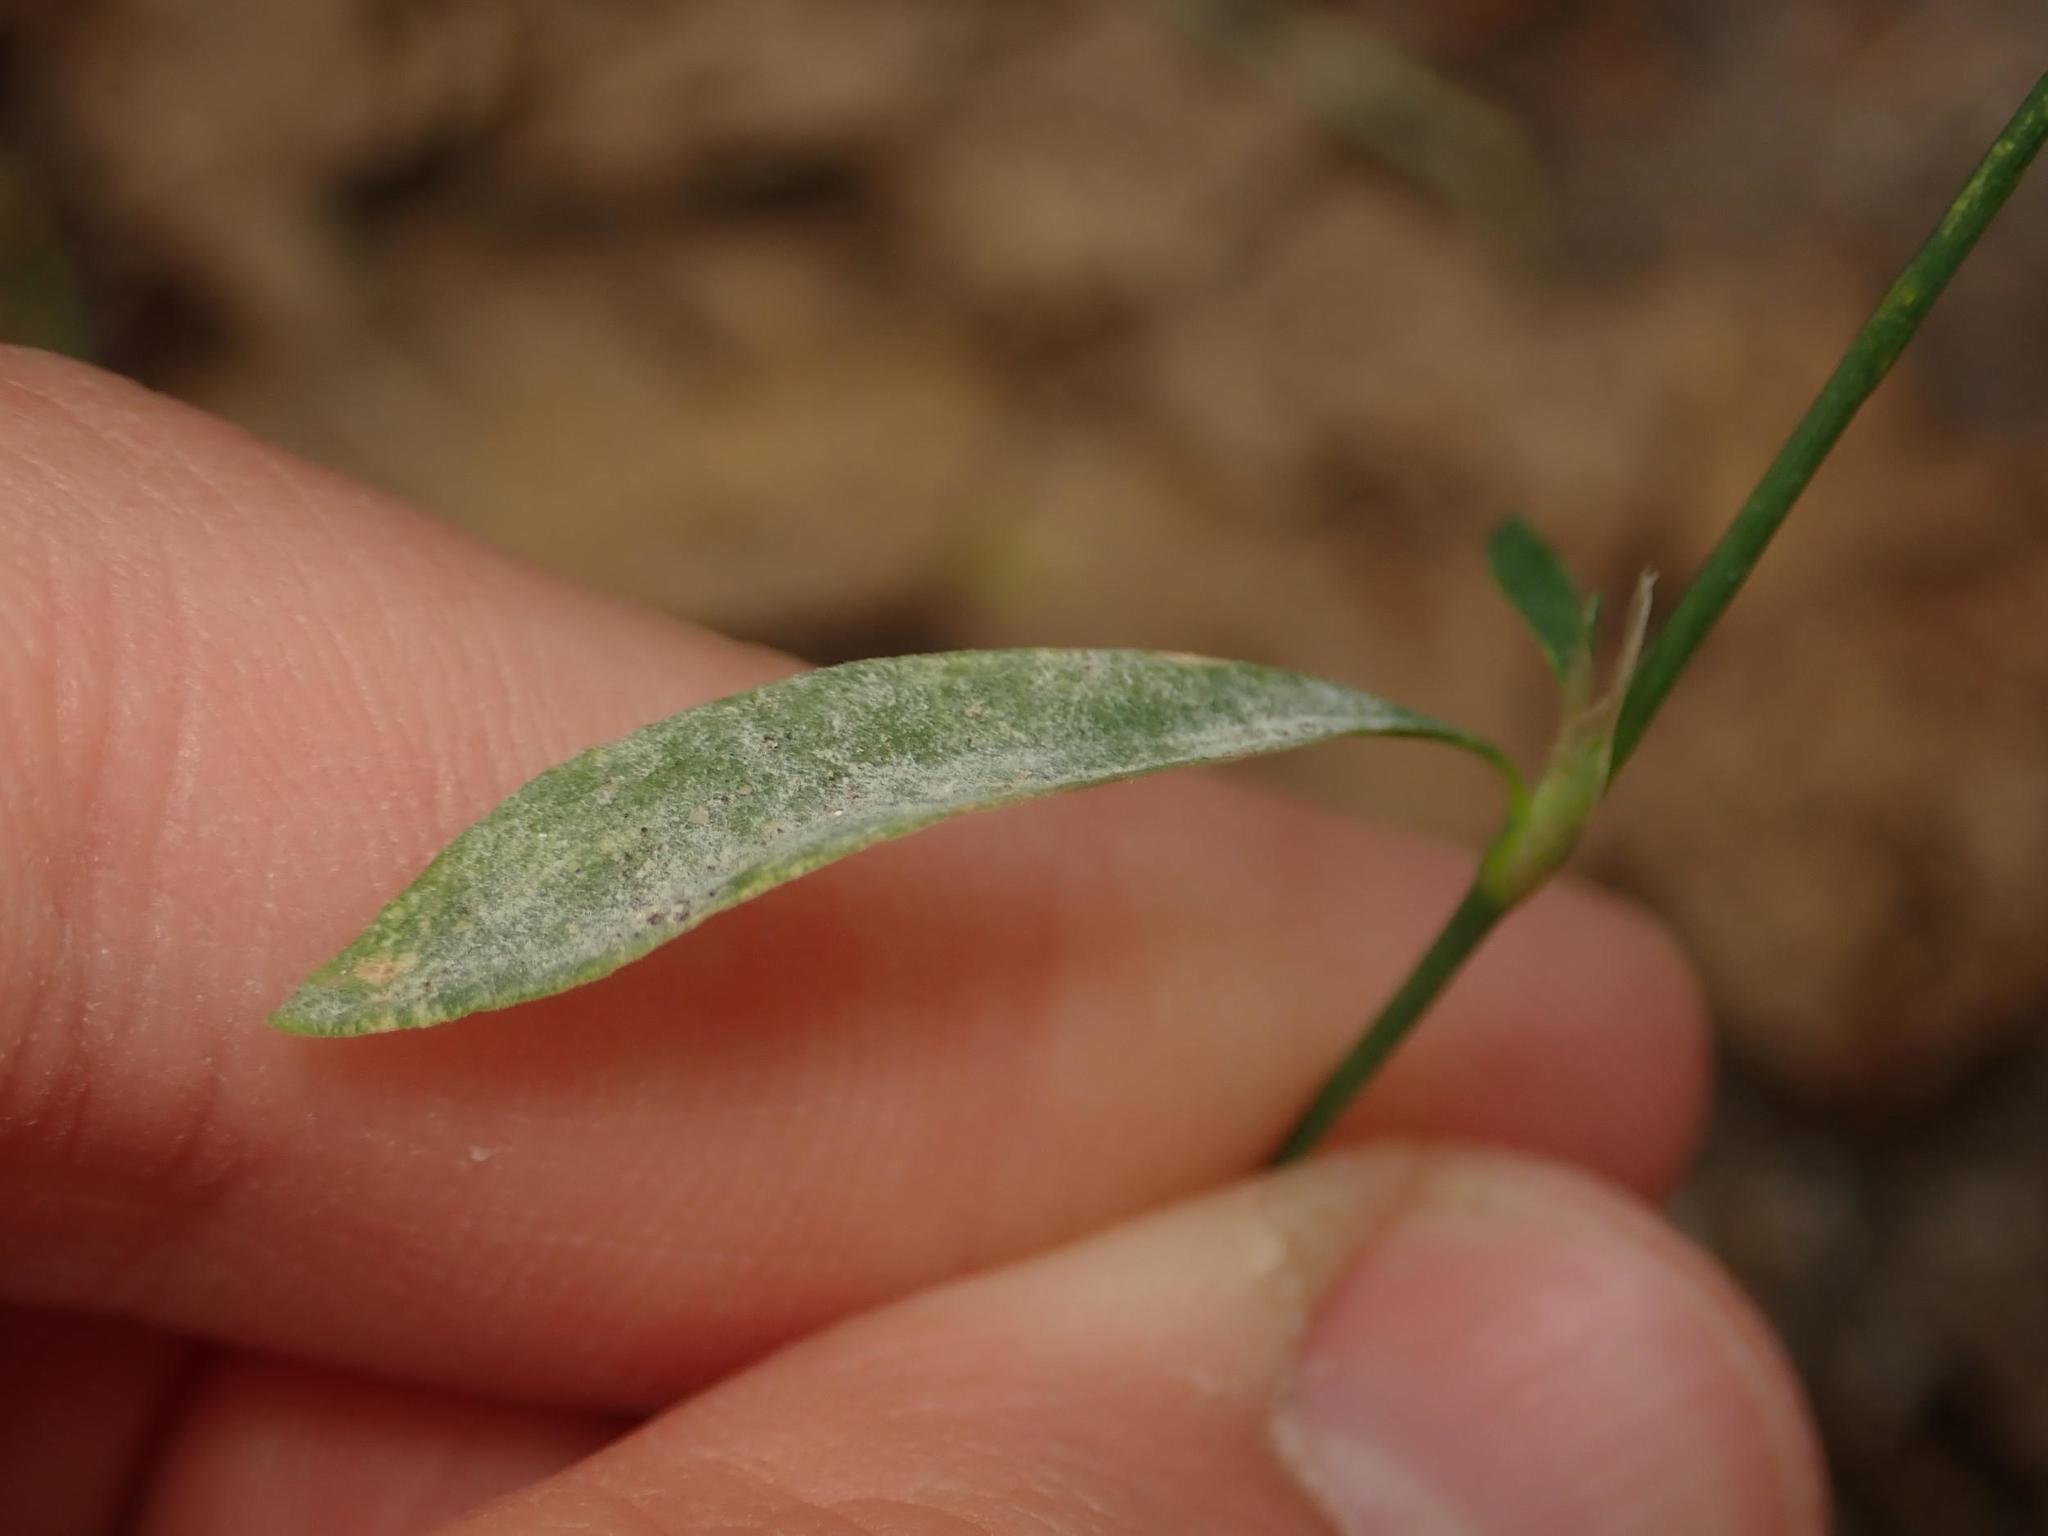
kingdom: Fungi
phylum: Ascomycota
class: Leotiomycetes
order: Helotiales
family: Erysiphaceae
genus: Erysiphe
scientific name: Erysiphe polygoni
